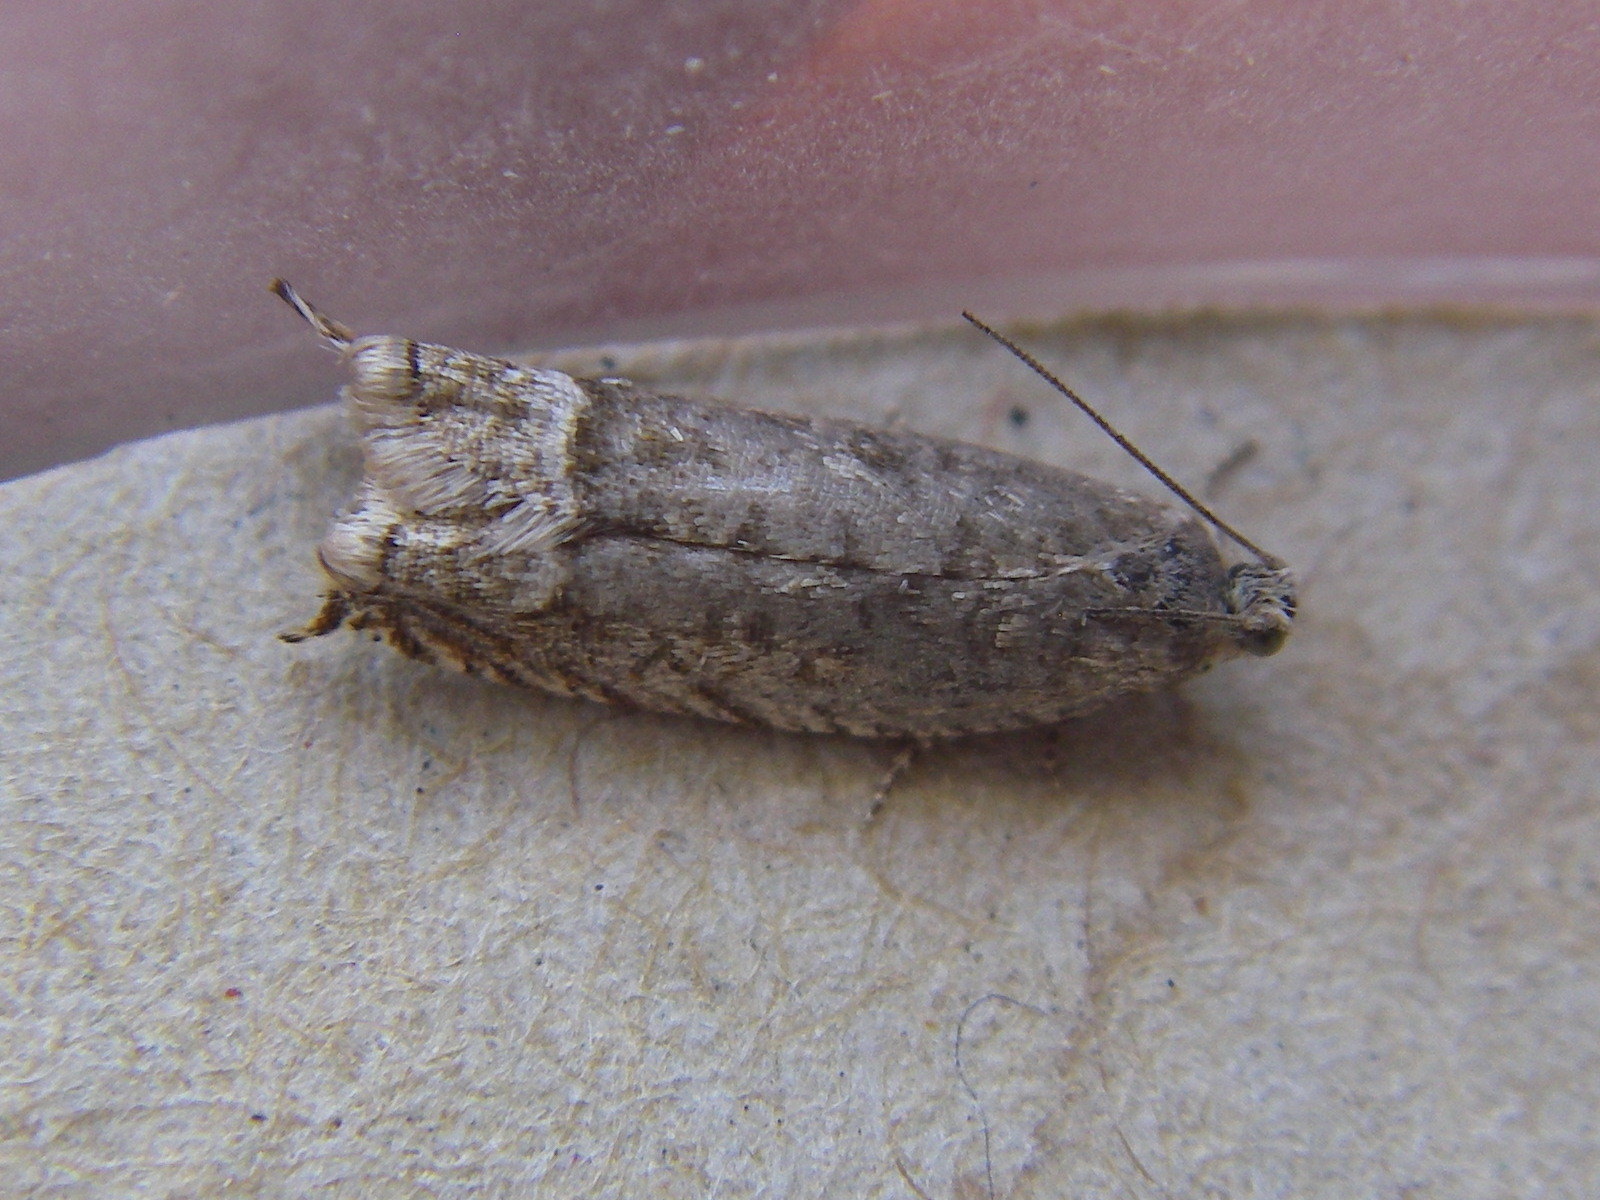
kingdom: Animalia
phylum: Arthropoda
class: Insecta
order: Lepidoptera
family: Tortricidae
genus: Ancylis
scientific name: Ancylis tineana
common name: Rannoch roller
